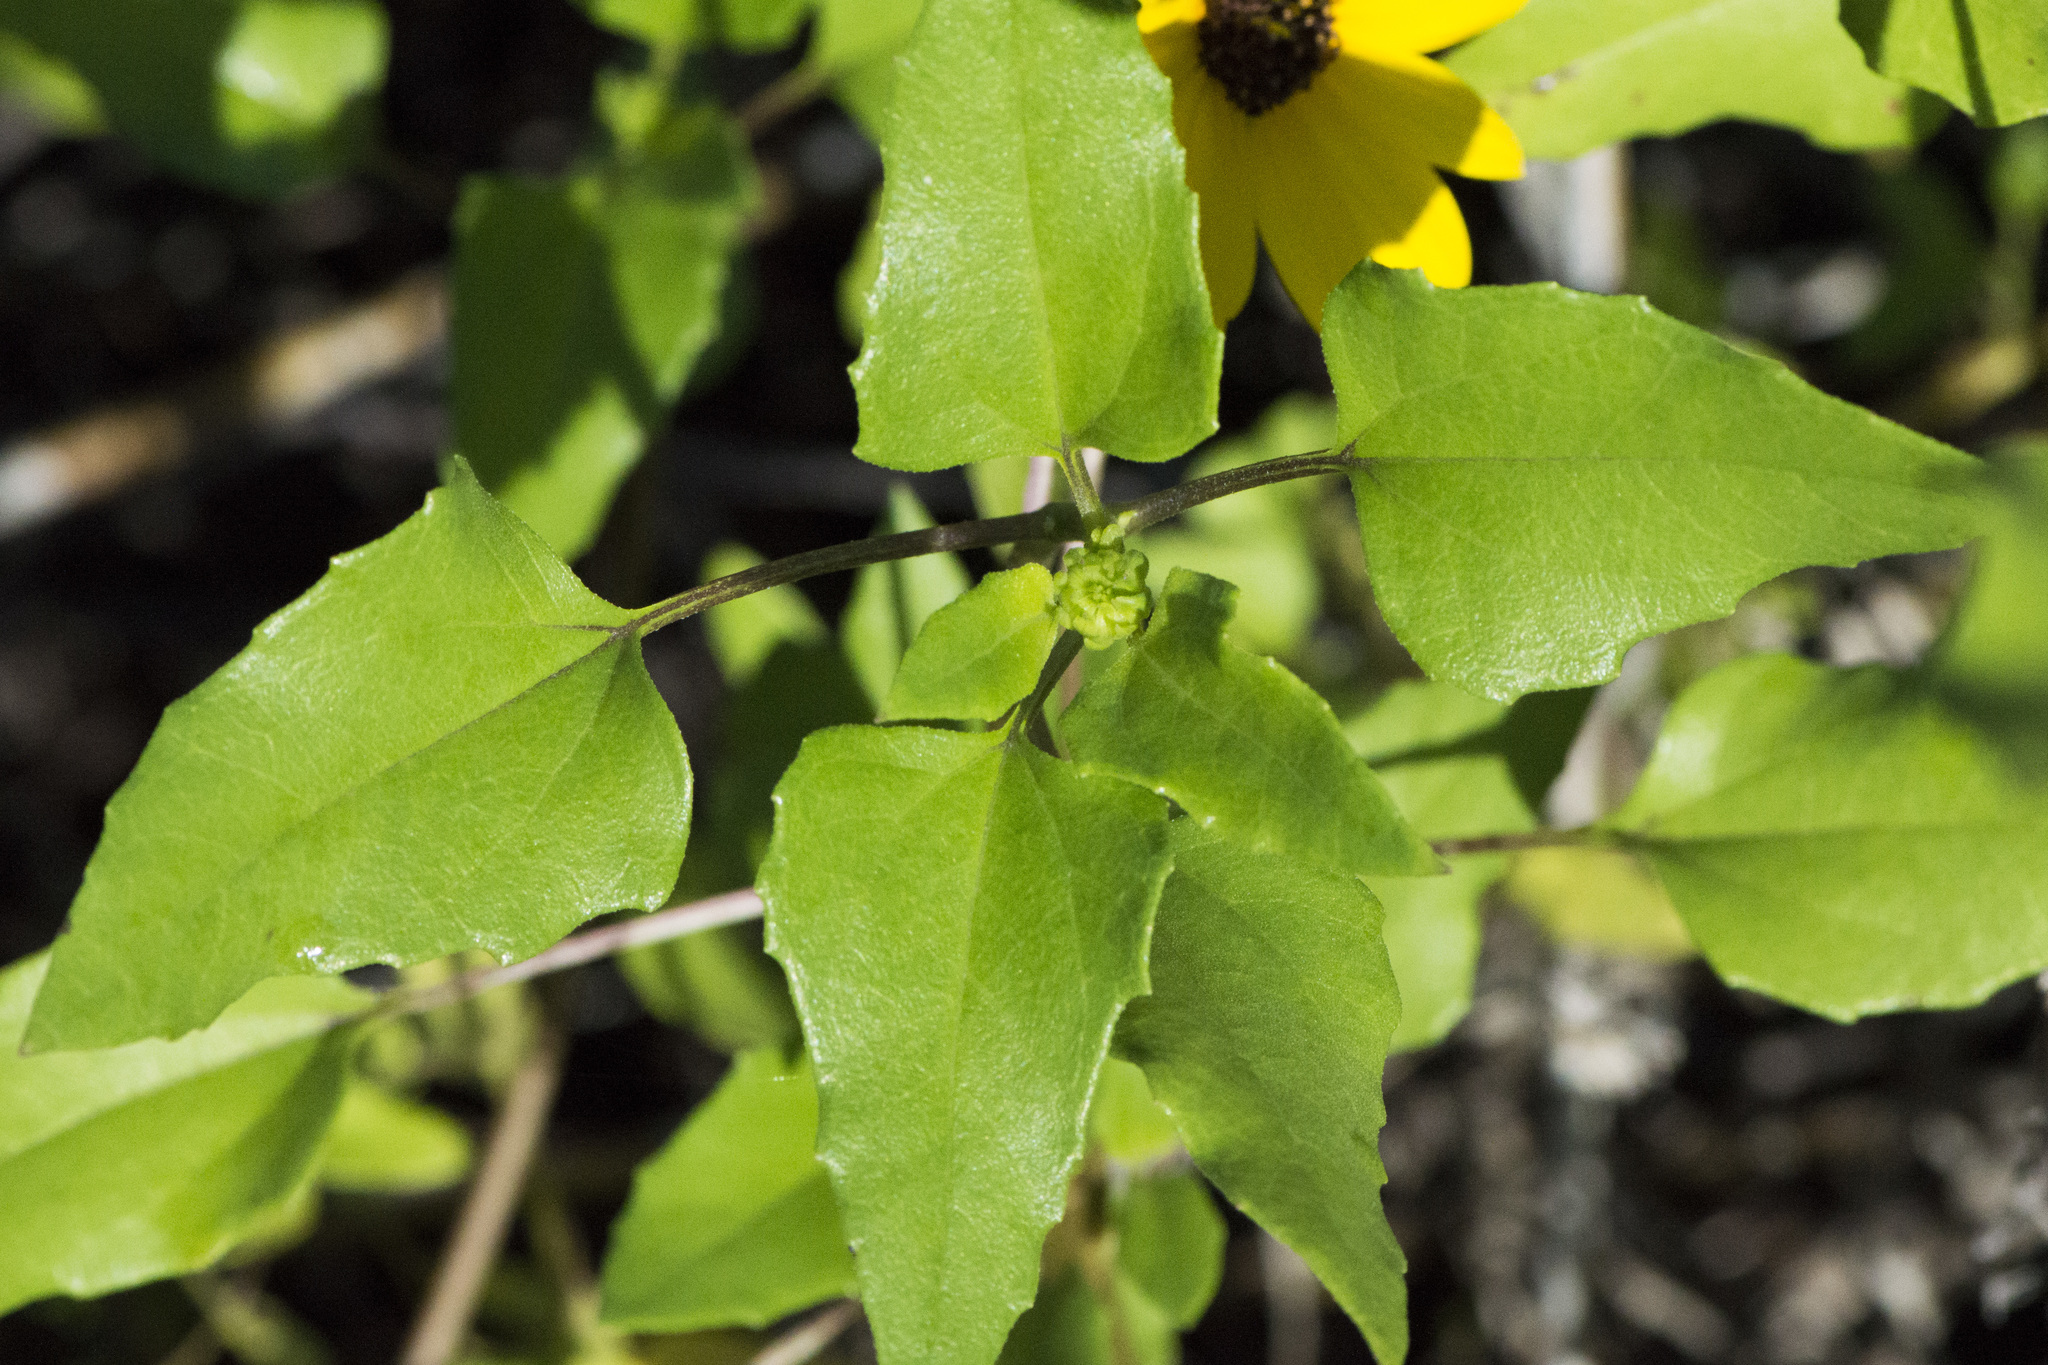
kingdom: Plantae
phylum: Tracheophyta
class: Magnoliopsida
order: Asterales
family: Asteraceae
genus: Helianthus
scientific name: Helianthus debilis
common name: Weak sunflower
